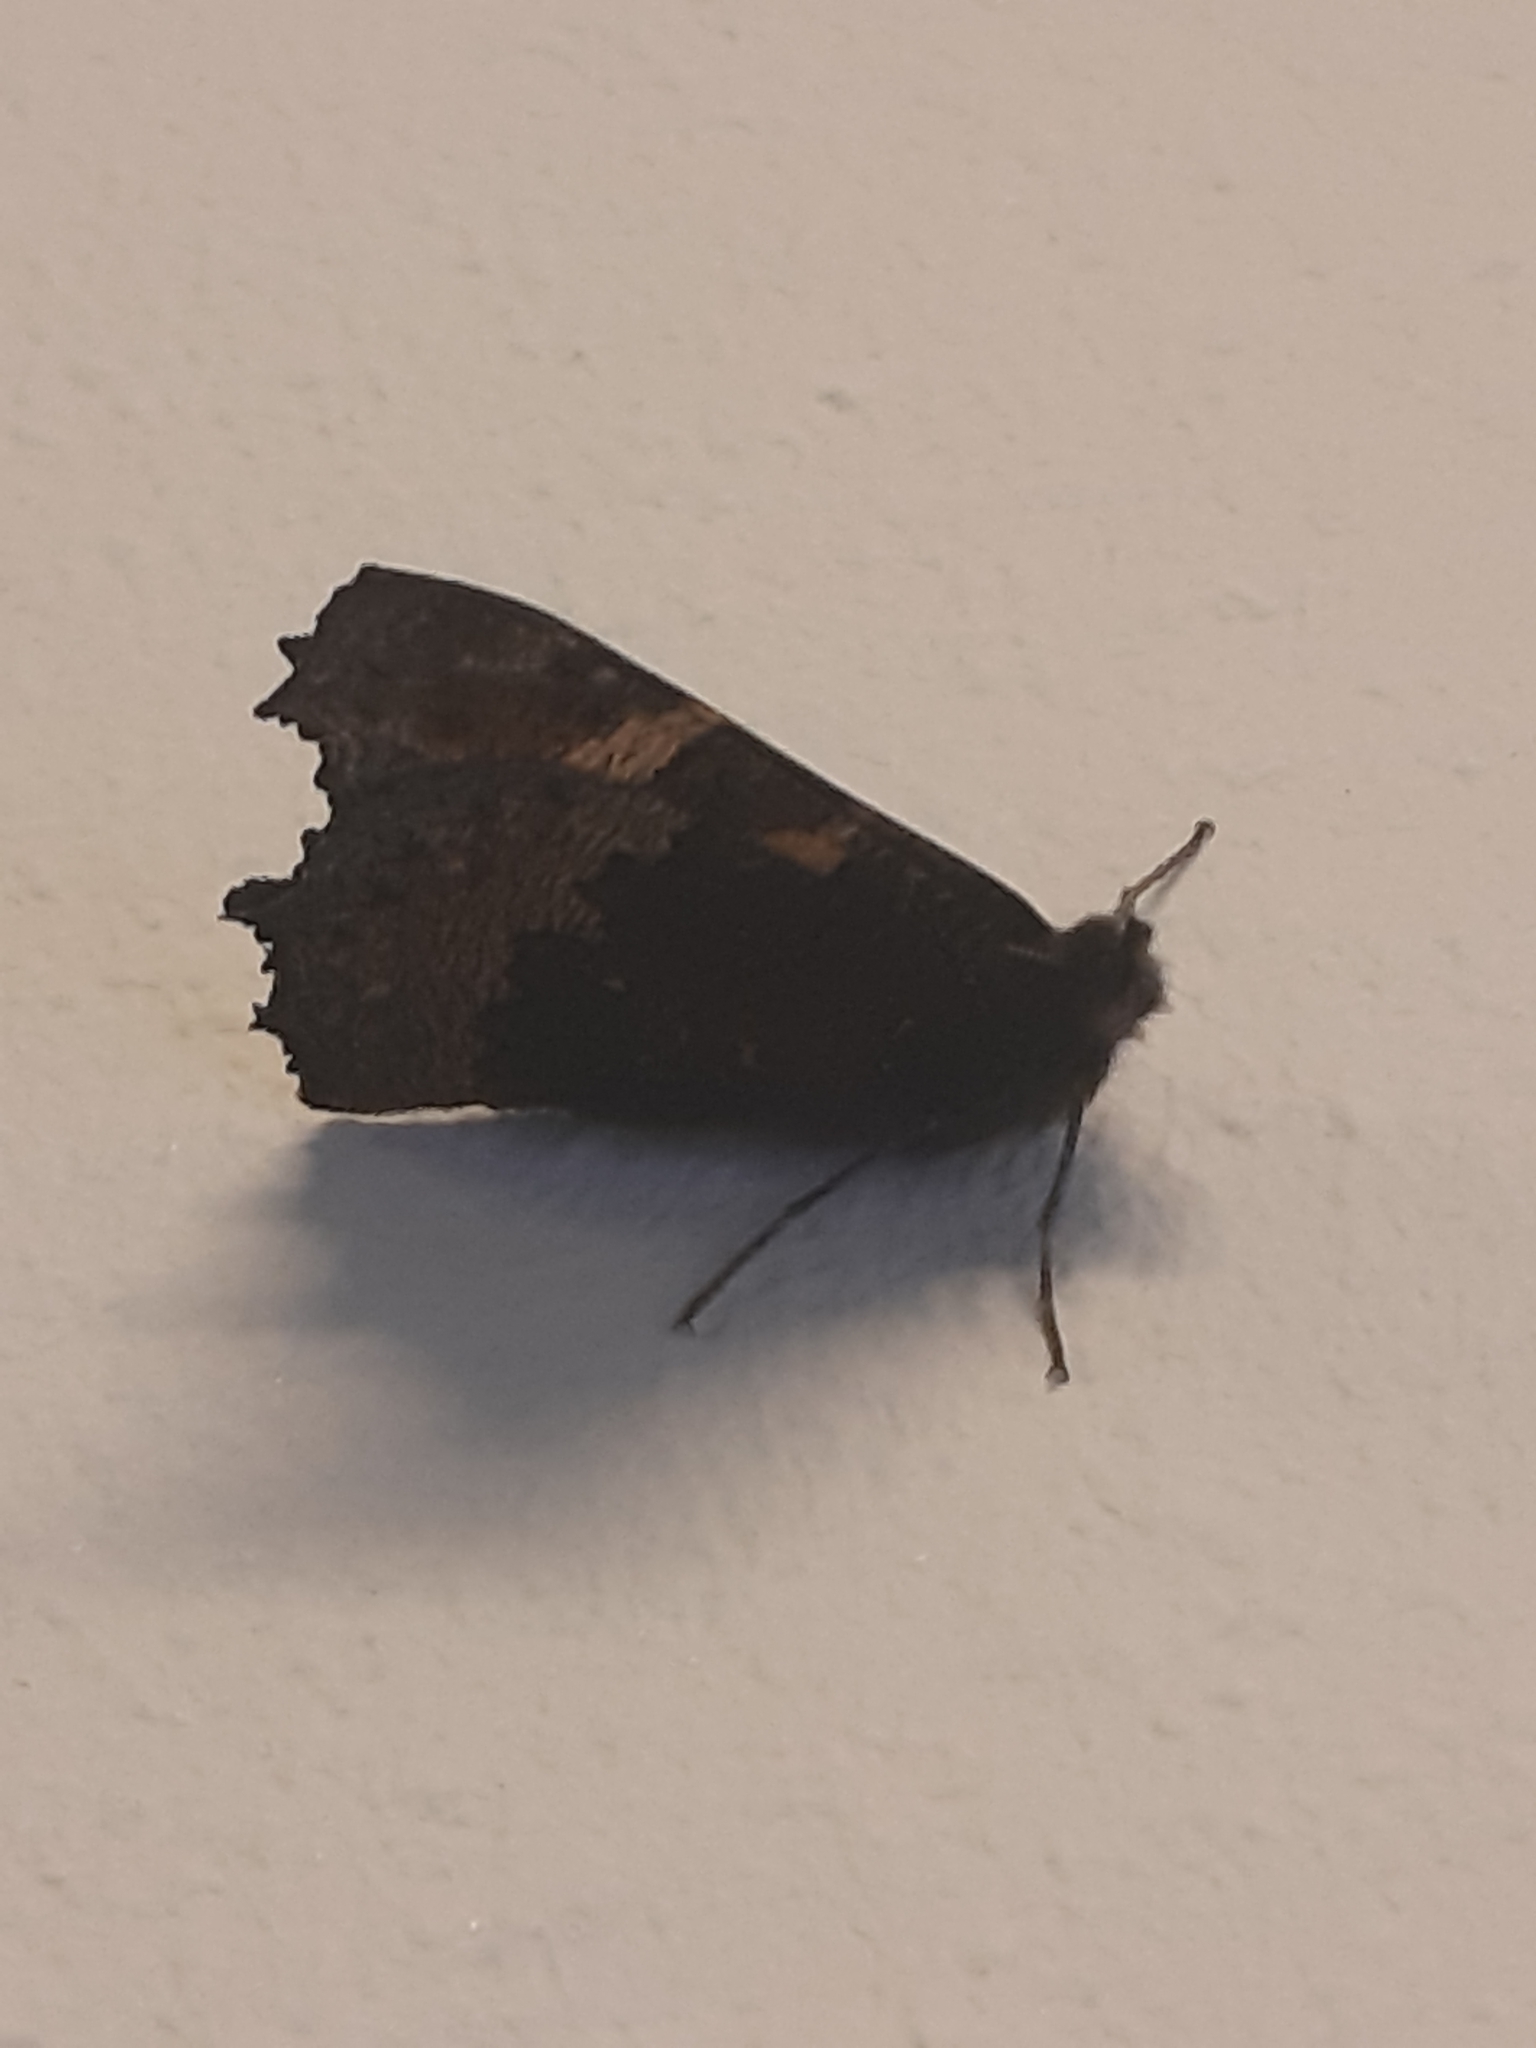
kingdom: Animalia
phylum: Arthropoda
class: Insecta
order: Lepidoptera
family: Nymphalidae
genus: Aglais
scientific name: Aglais urticae
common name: Small tortoiseshell
